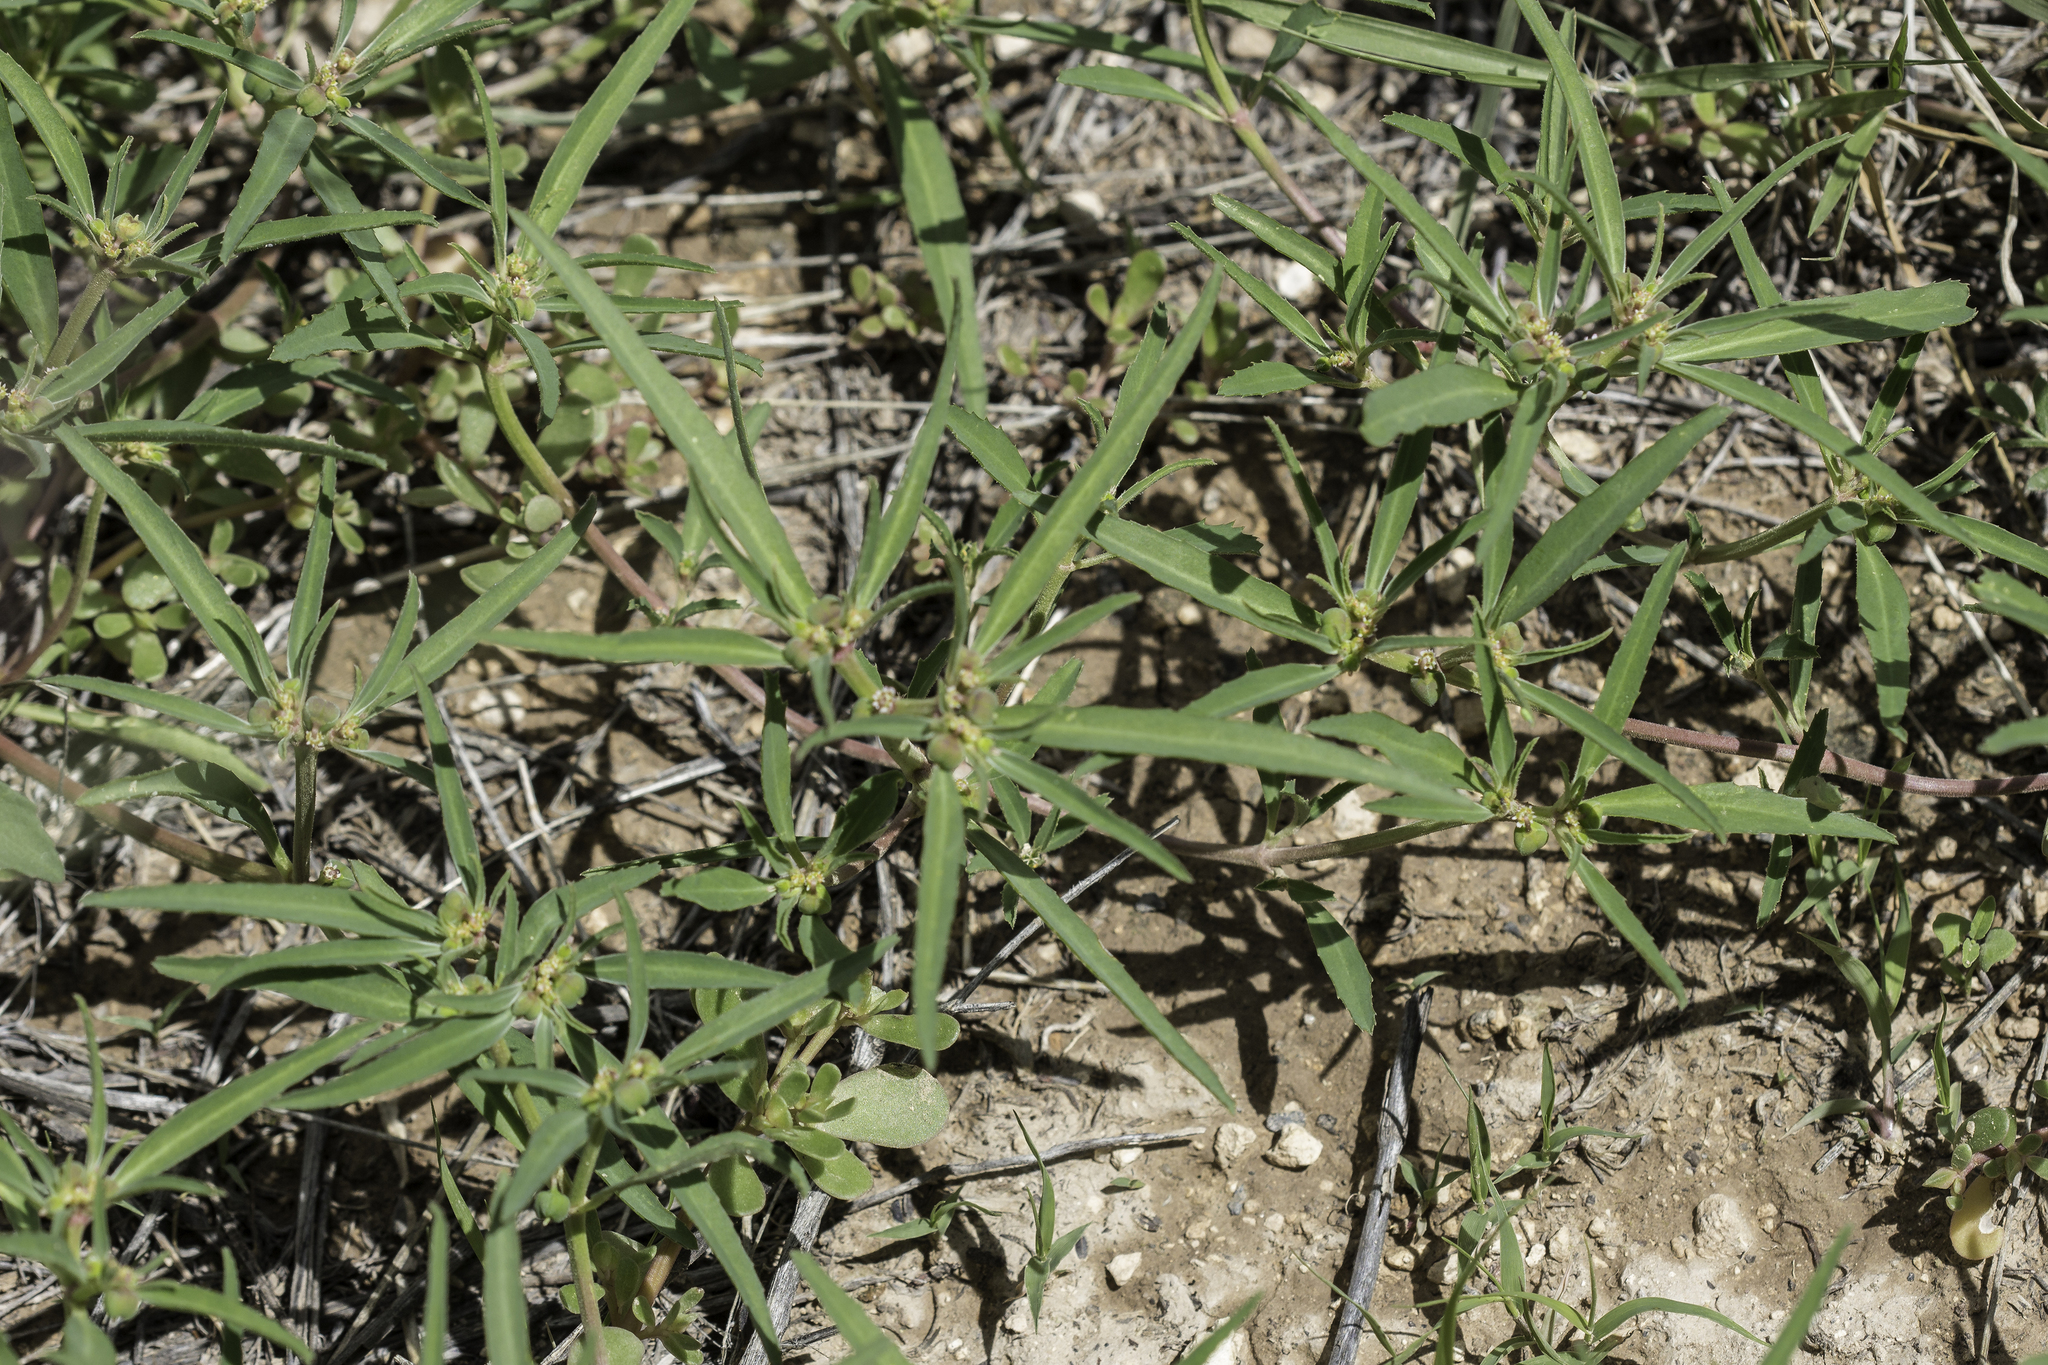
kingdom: Plantae
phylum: Tracheophyta
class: Magnoliopsida
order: Malpighiales
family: Euphorbiaceae
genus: Euphorbia
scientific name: Euphorbia exstipulata
